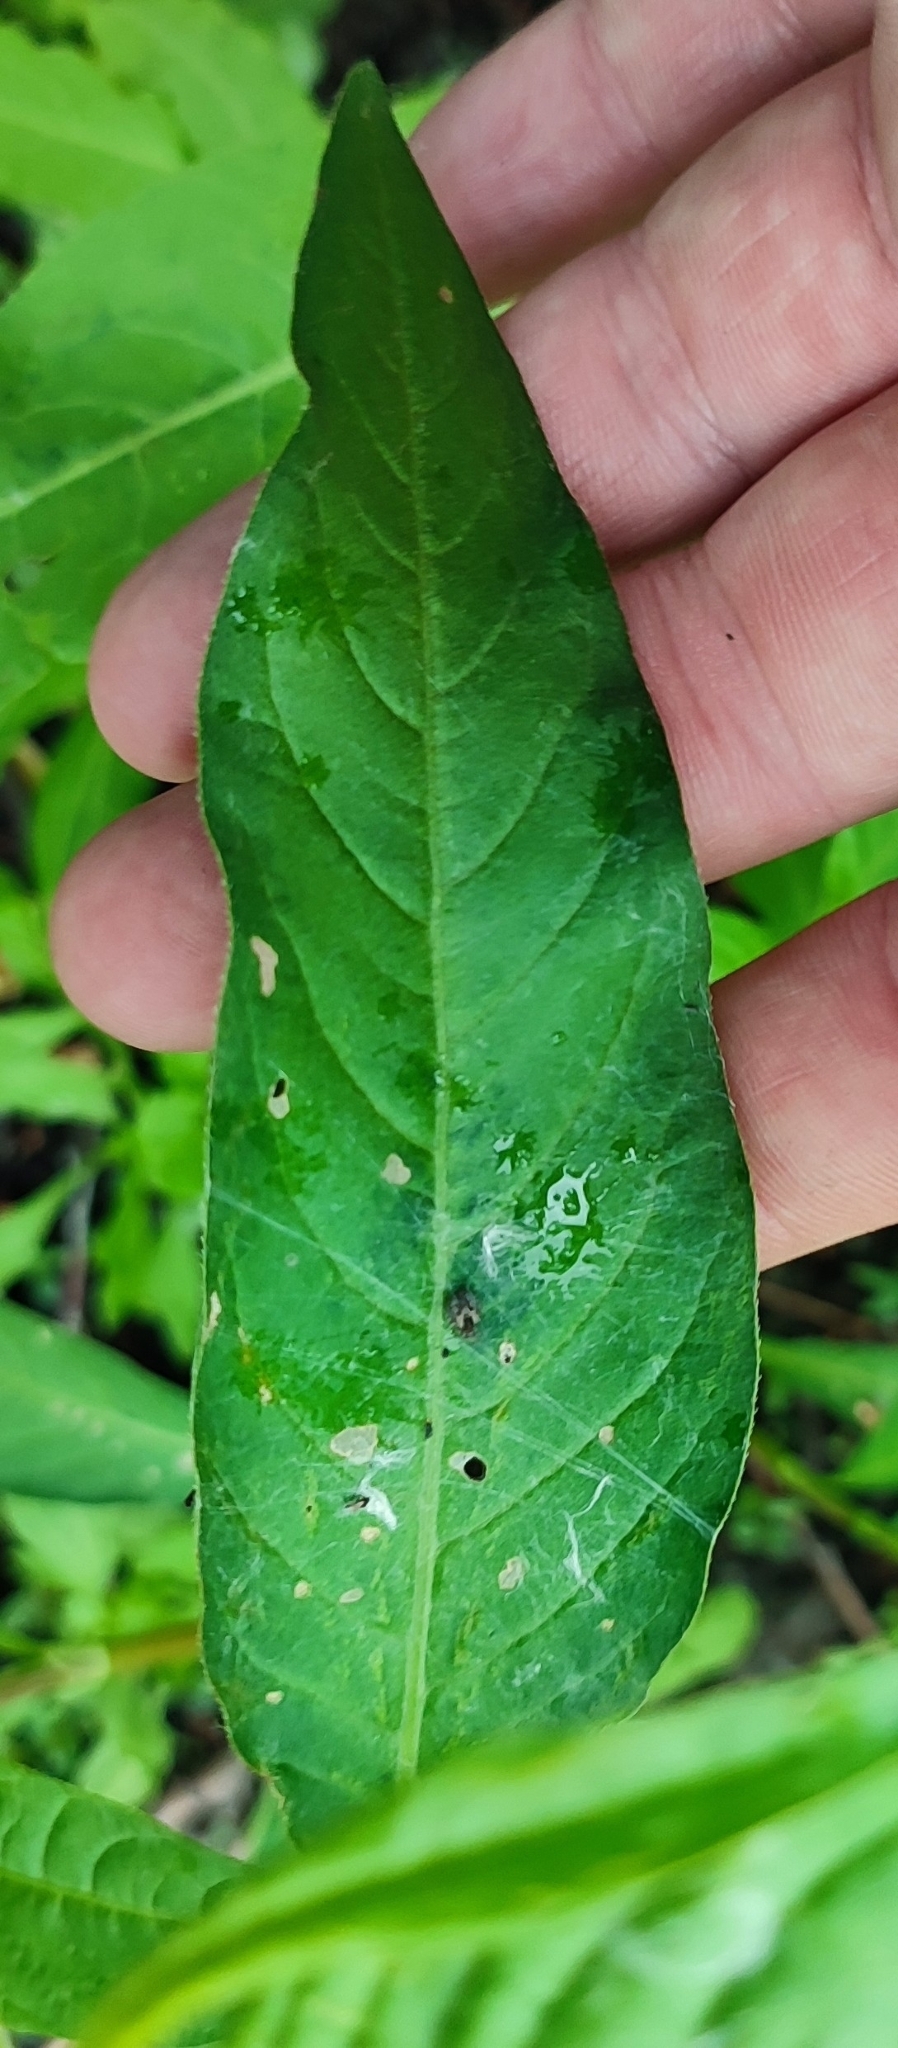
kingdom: Plantae
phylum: Tracheophyta
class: Magnoliopsida
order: Caryophyllales
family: Polygonaceae
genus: Persicaria
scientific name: Persicaria lapathifolia
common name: Curlytop knotweed
